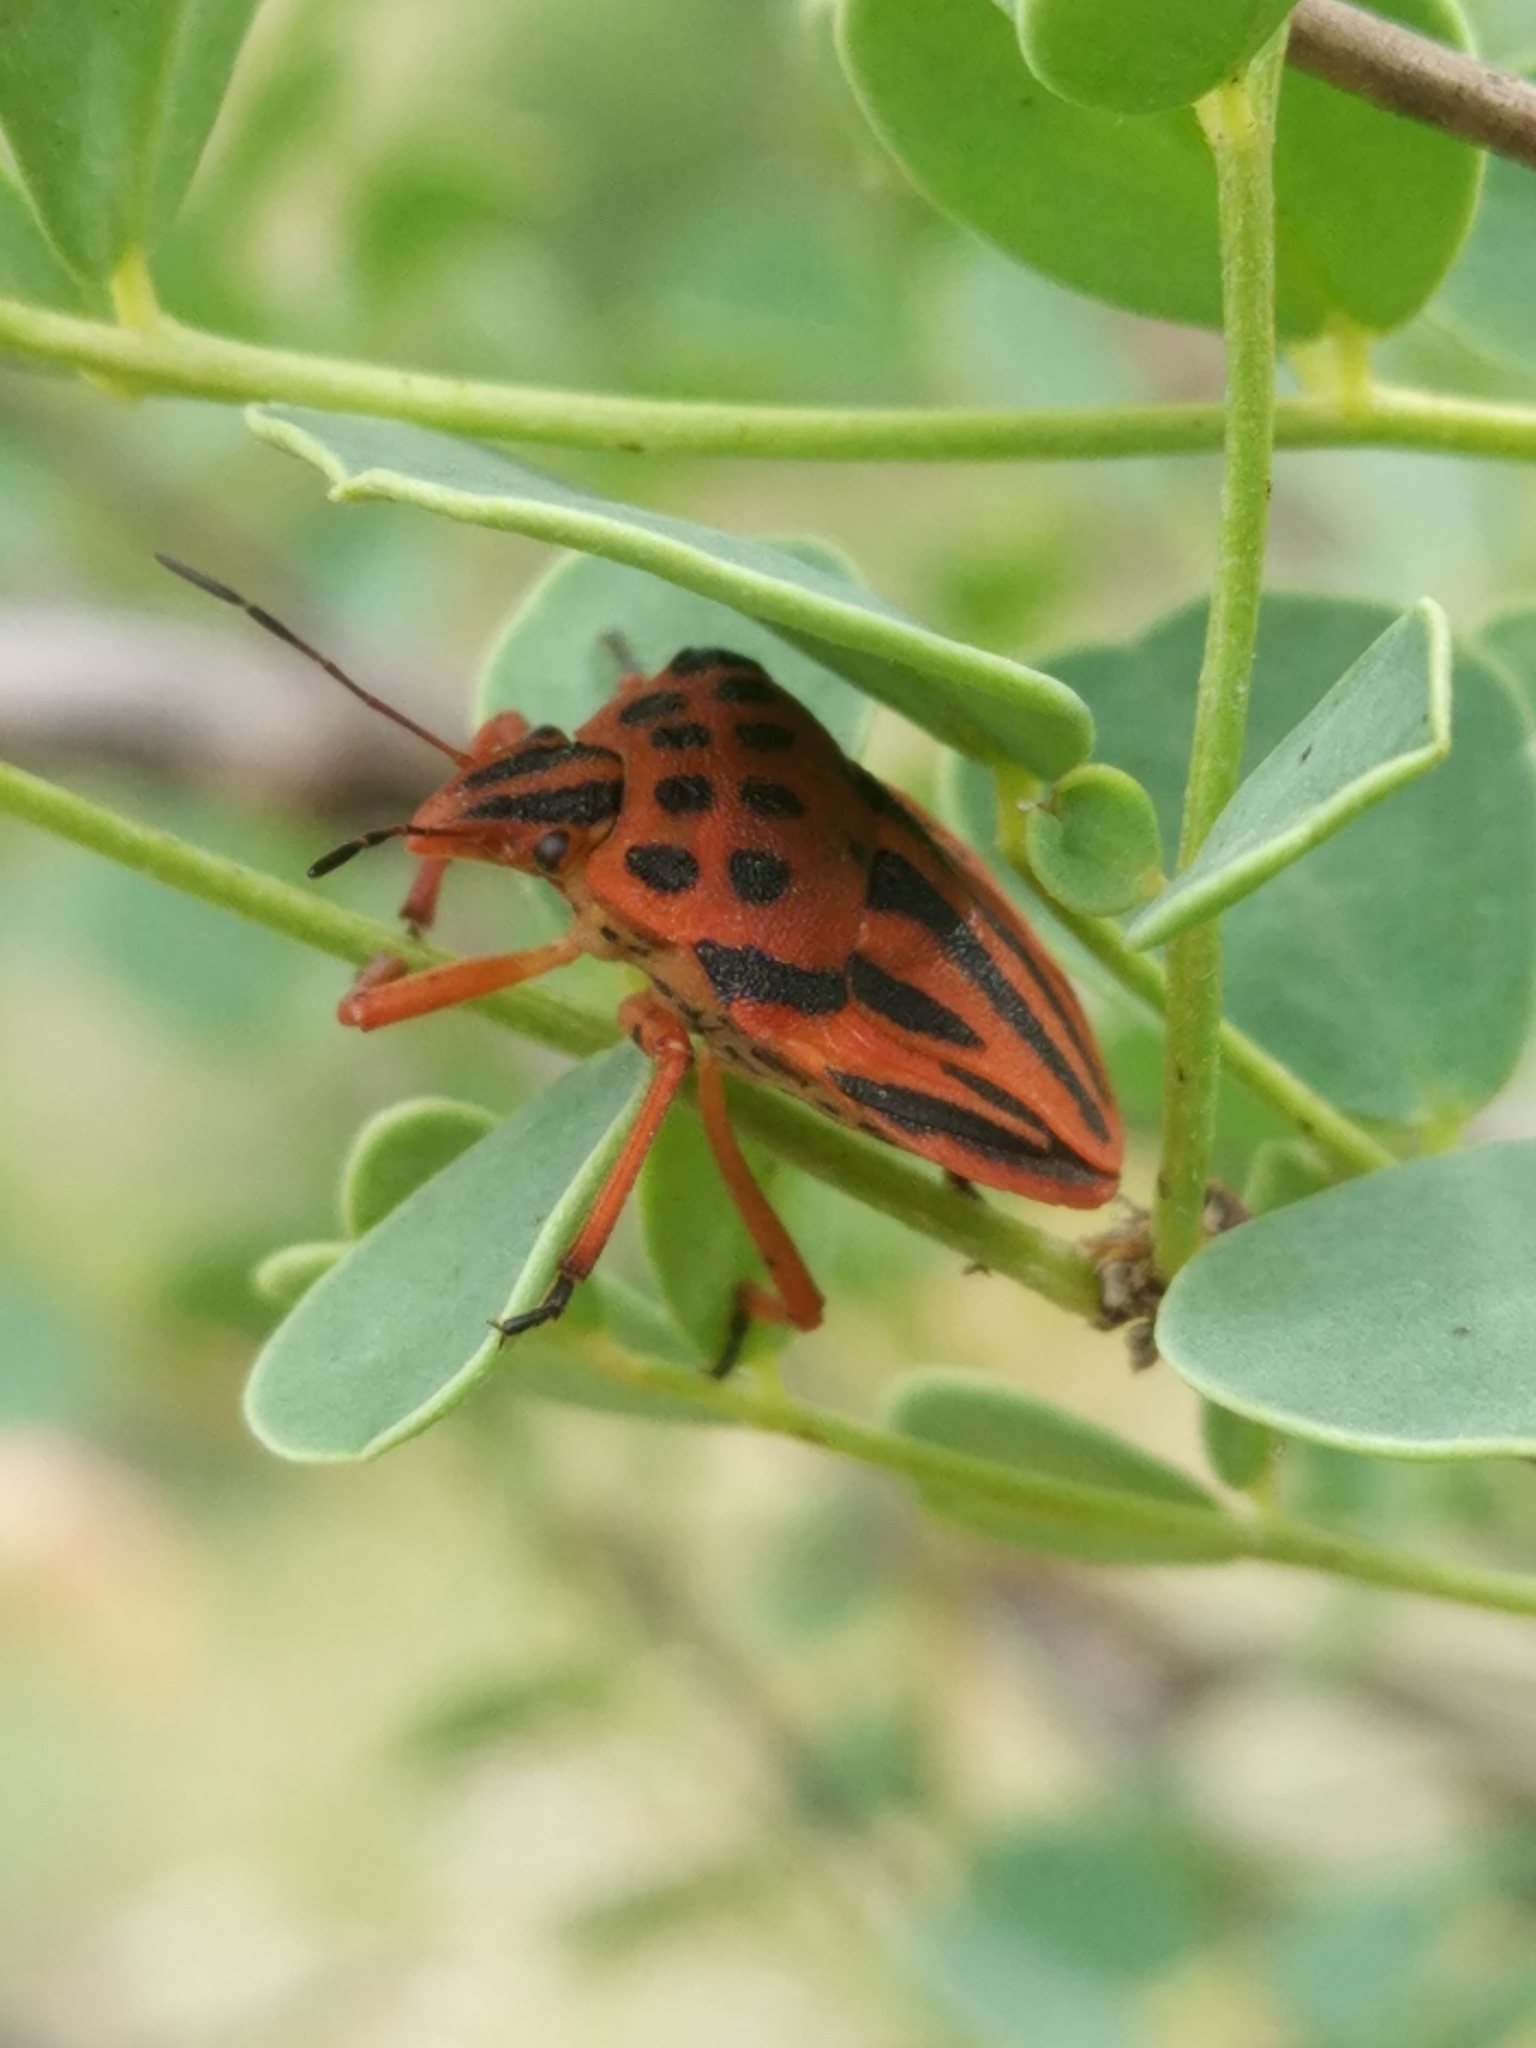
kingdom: Animalia
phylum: Arthropoda
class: Insecta
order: Hemiptera
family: Pentatomidae
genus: Graphosoma
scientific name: Graphosoma semipunctatum
